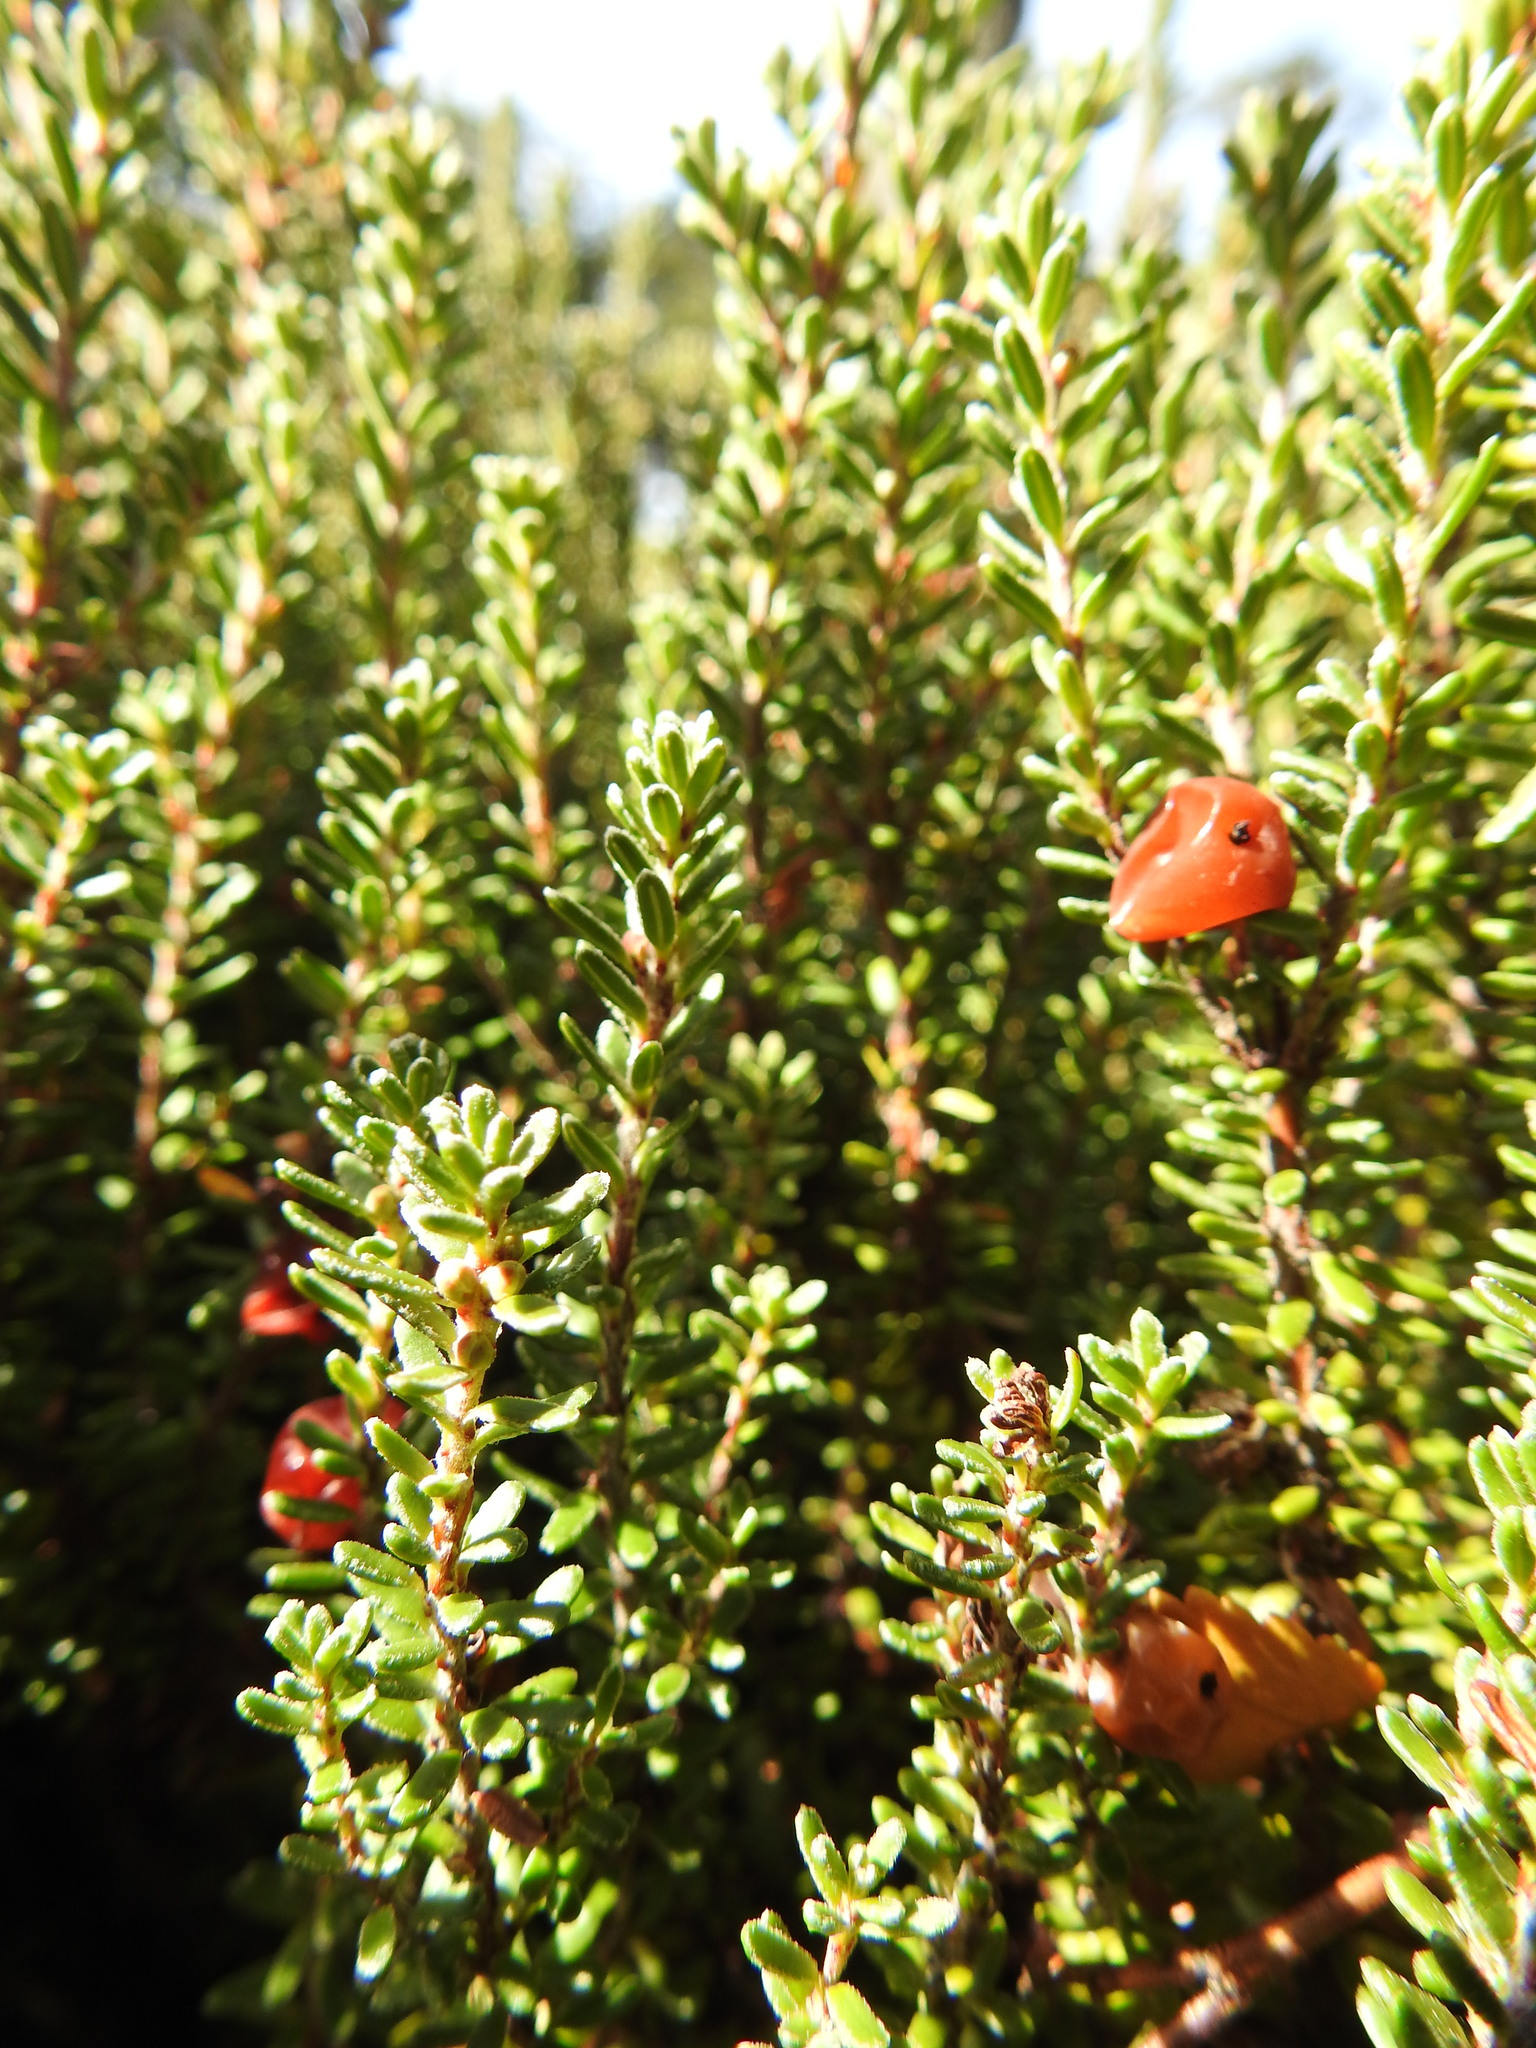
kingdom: Plantae
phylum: Tracheophyta
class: Magnoliopsida
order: Ericales
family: Ericaceae
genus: Empetrum
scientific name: Empetrum rubrum
